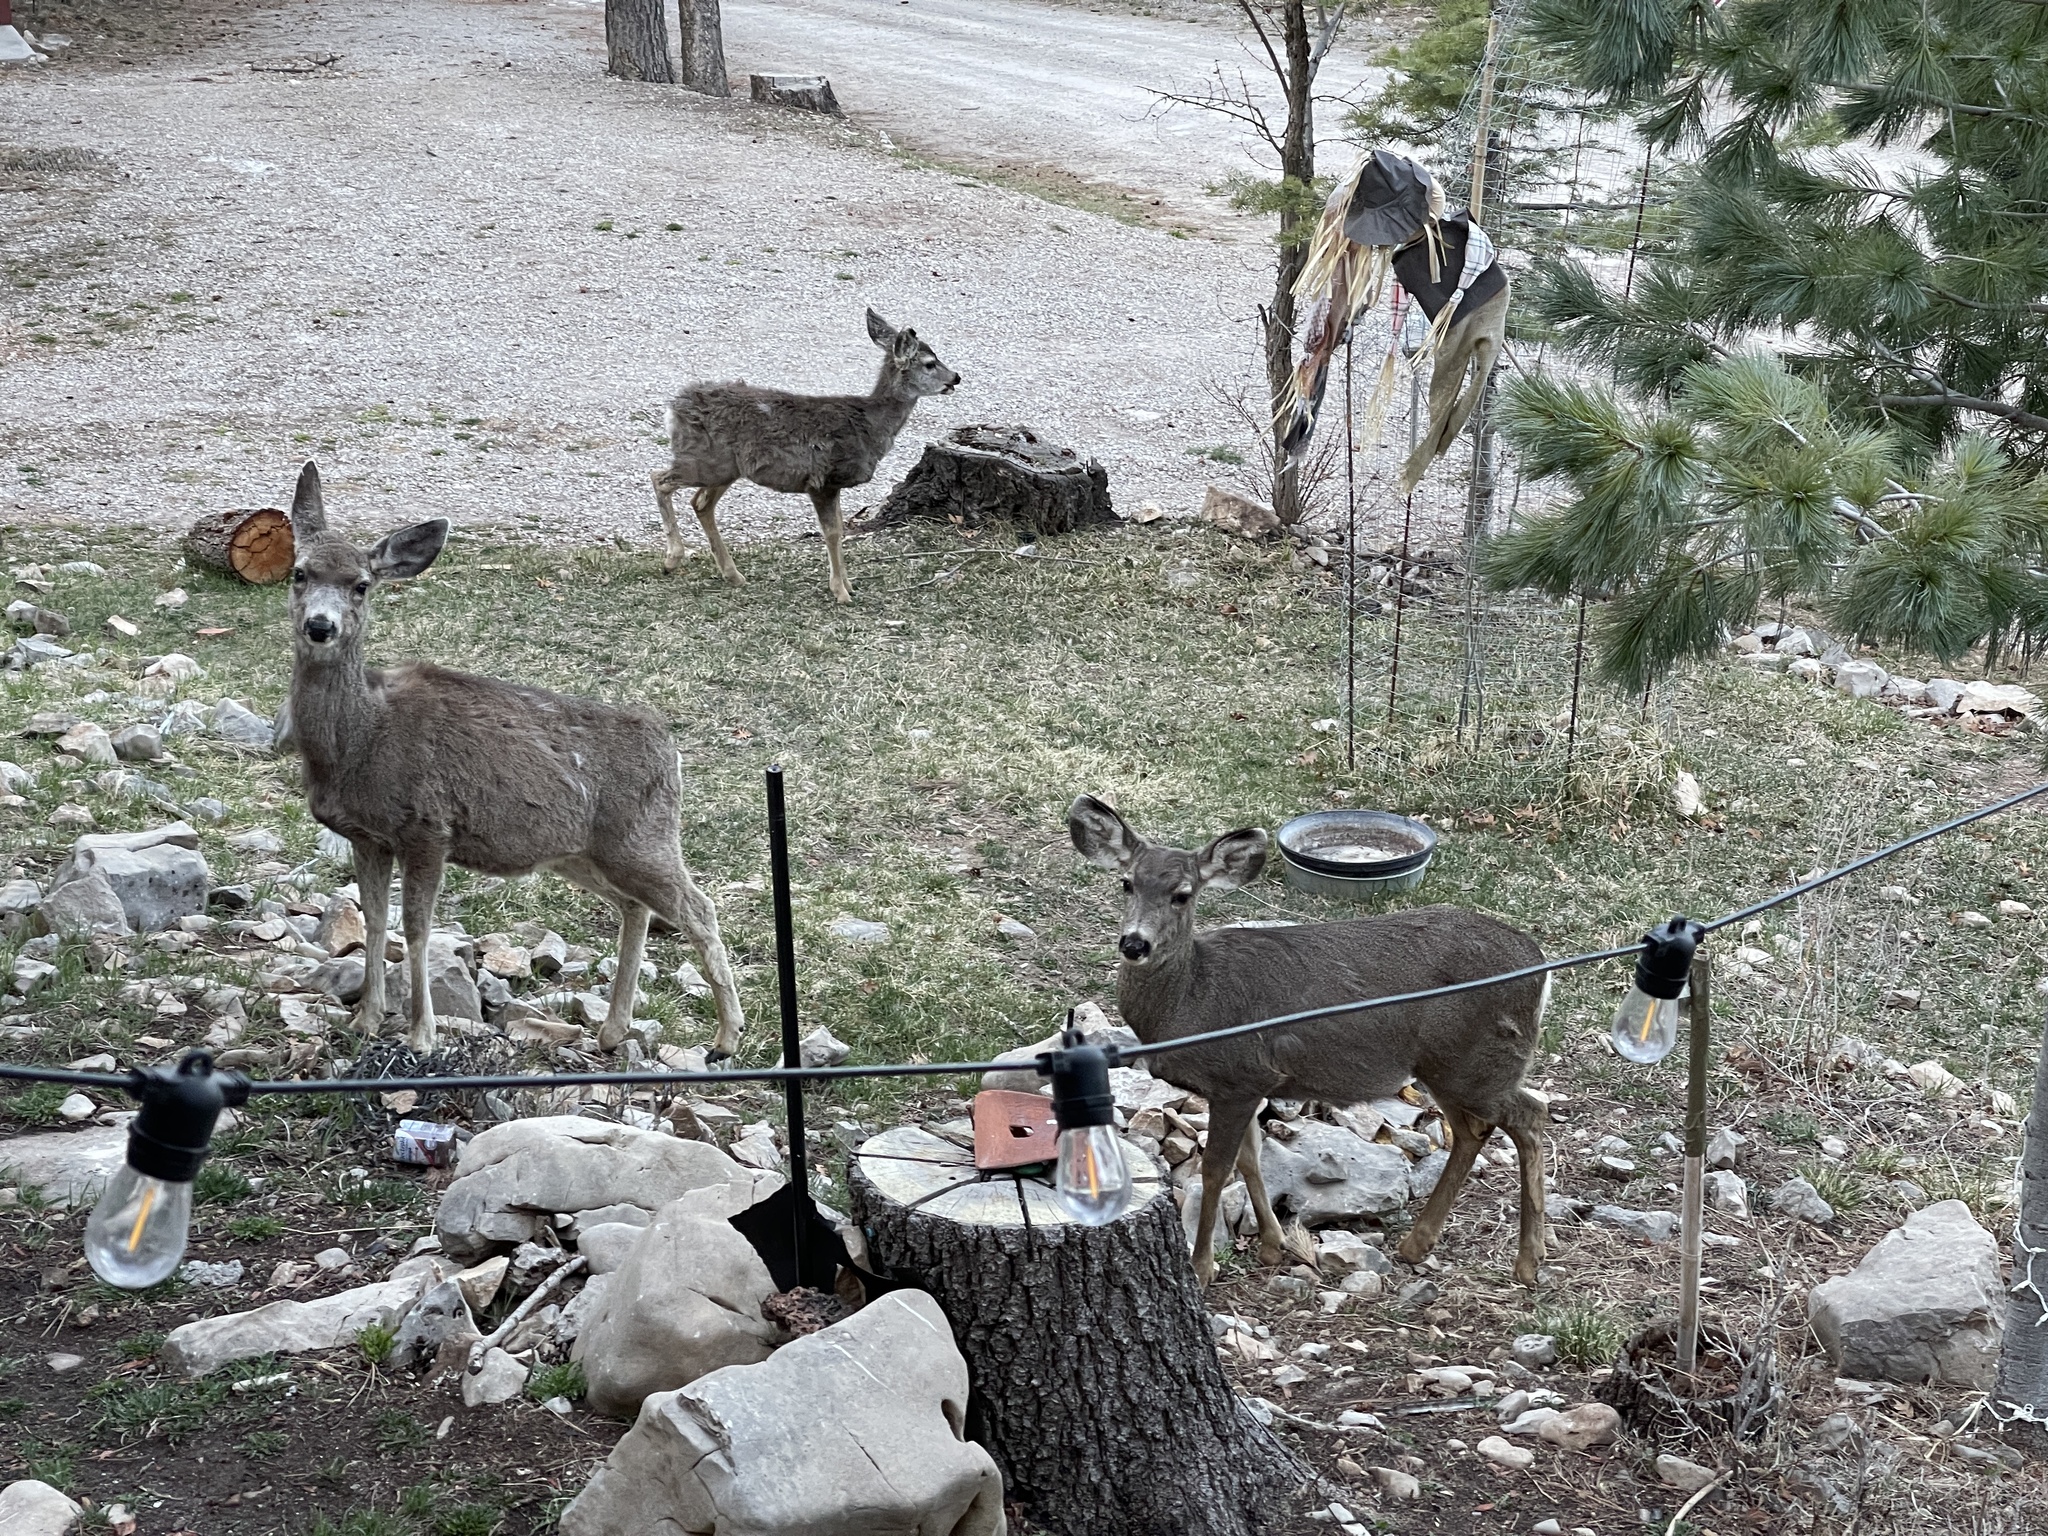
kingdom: Animalia
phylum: Chordata
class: Mammalia
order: Artiodactyla
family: Cervidae
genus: Odocoileus
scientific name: Odocoileus hemionus
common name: Mule deer
